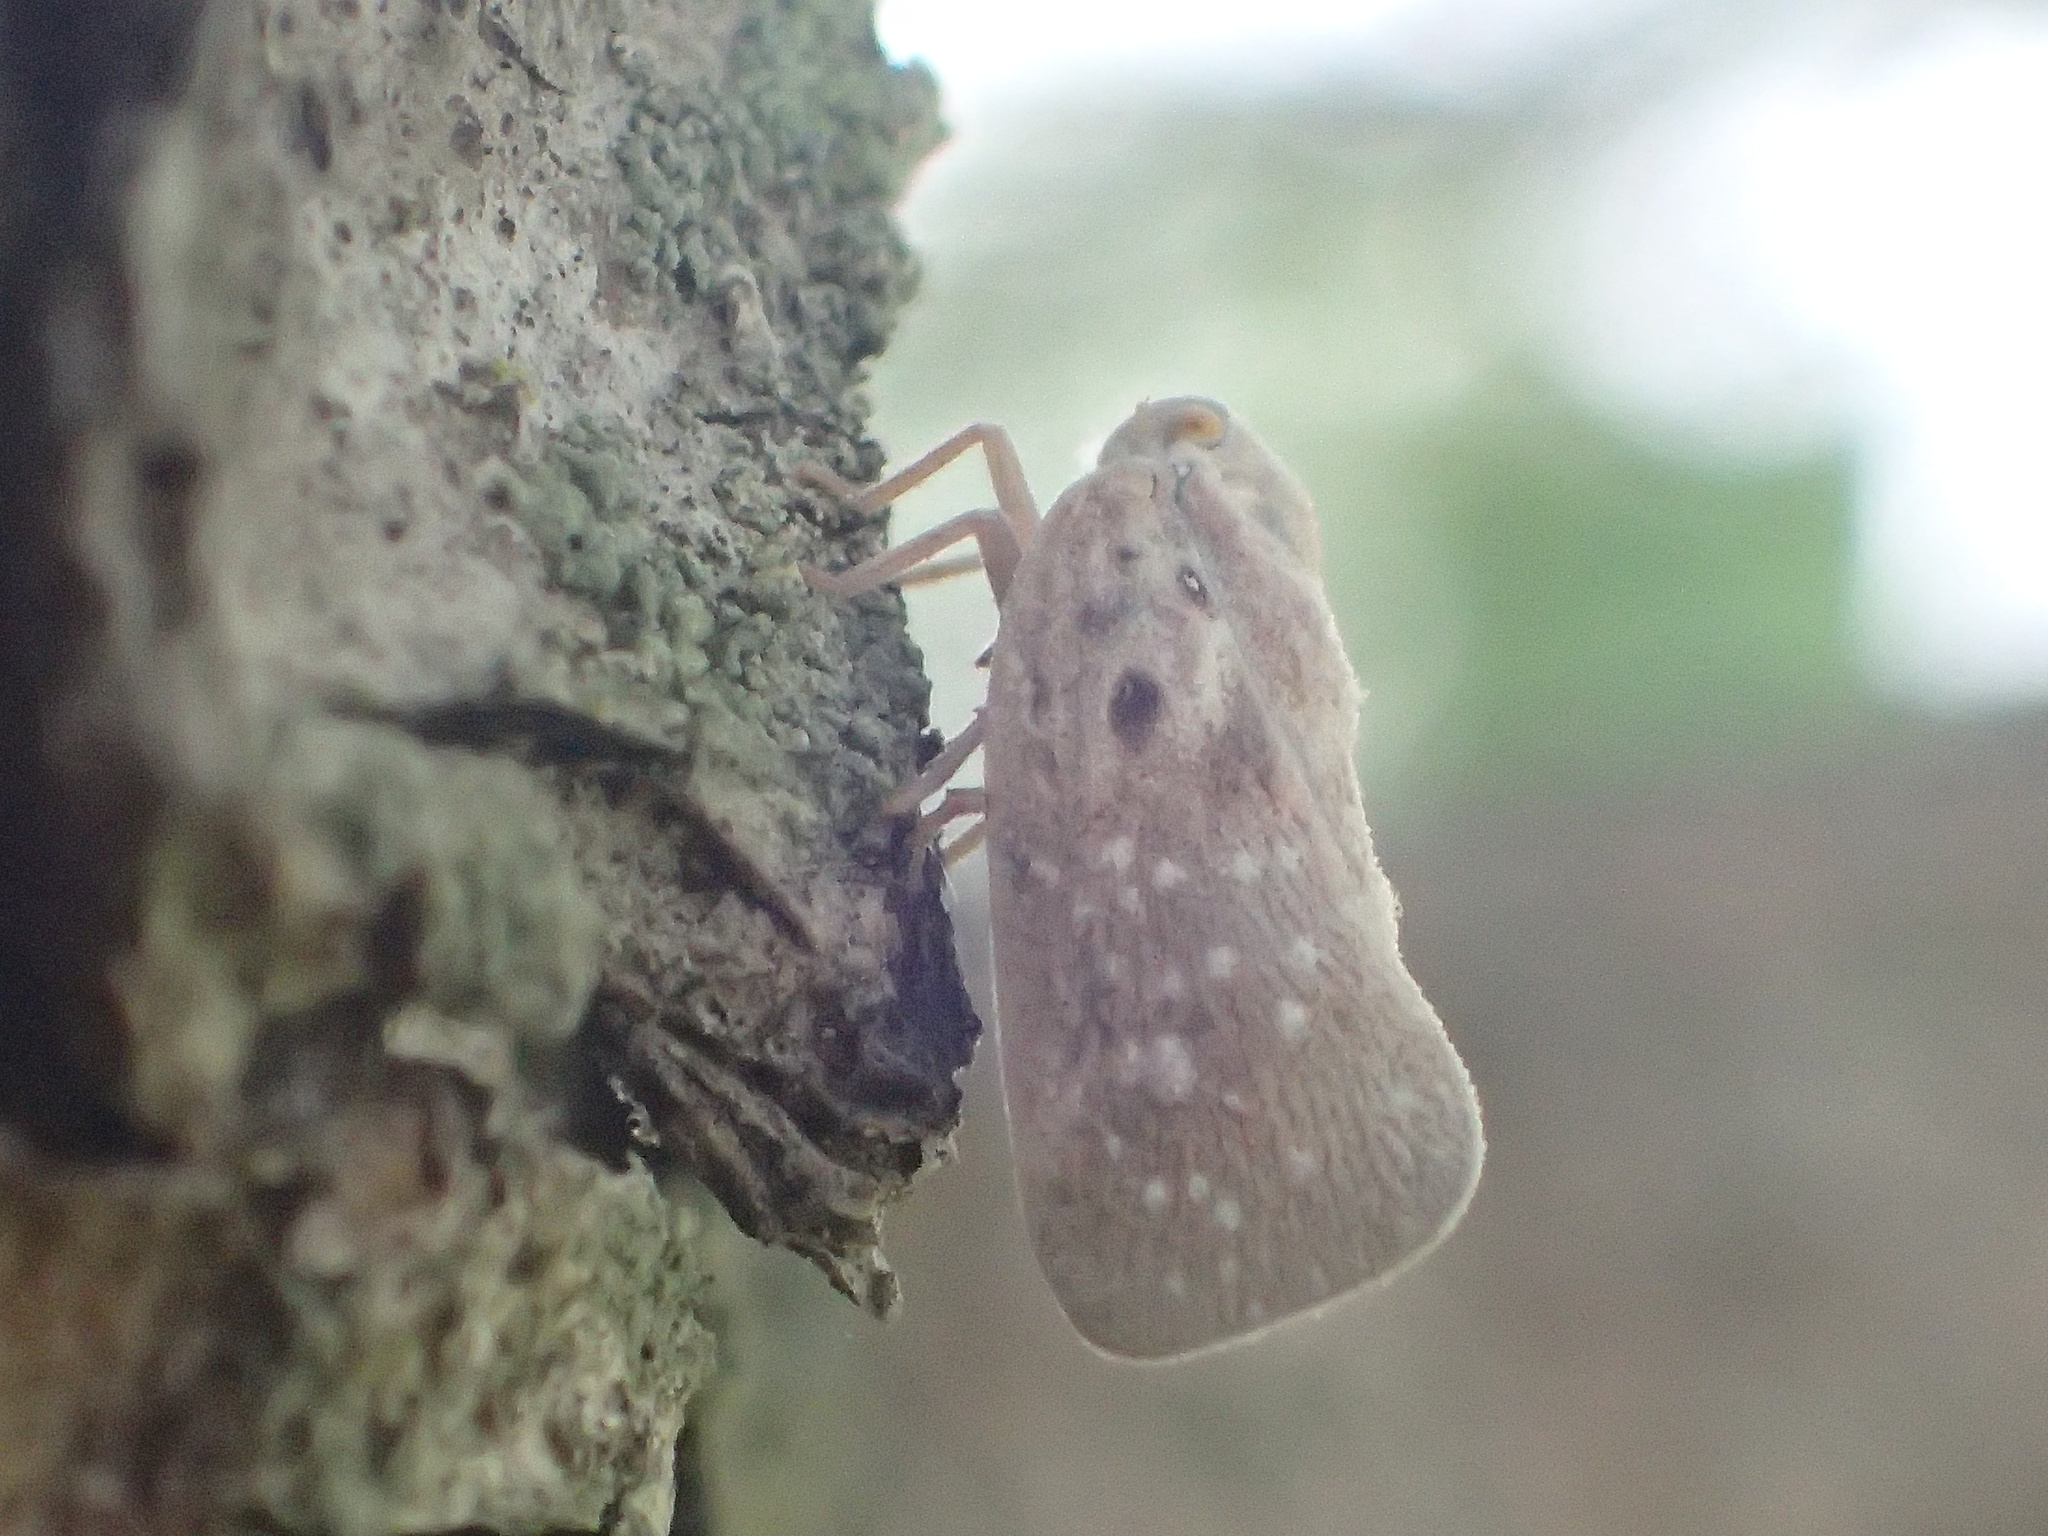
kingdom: Animalia
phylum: Arthropoda
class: Insecta
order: Hemiptera
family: Flatidae
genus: Metcalfa
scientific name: Metcalfa pruinosa
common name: Citrus flatid planthopper
